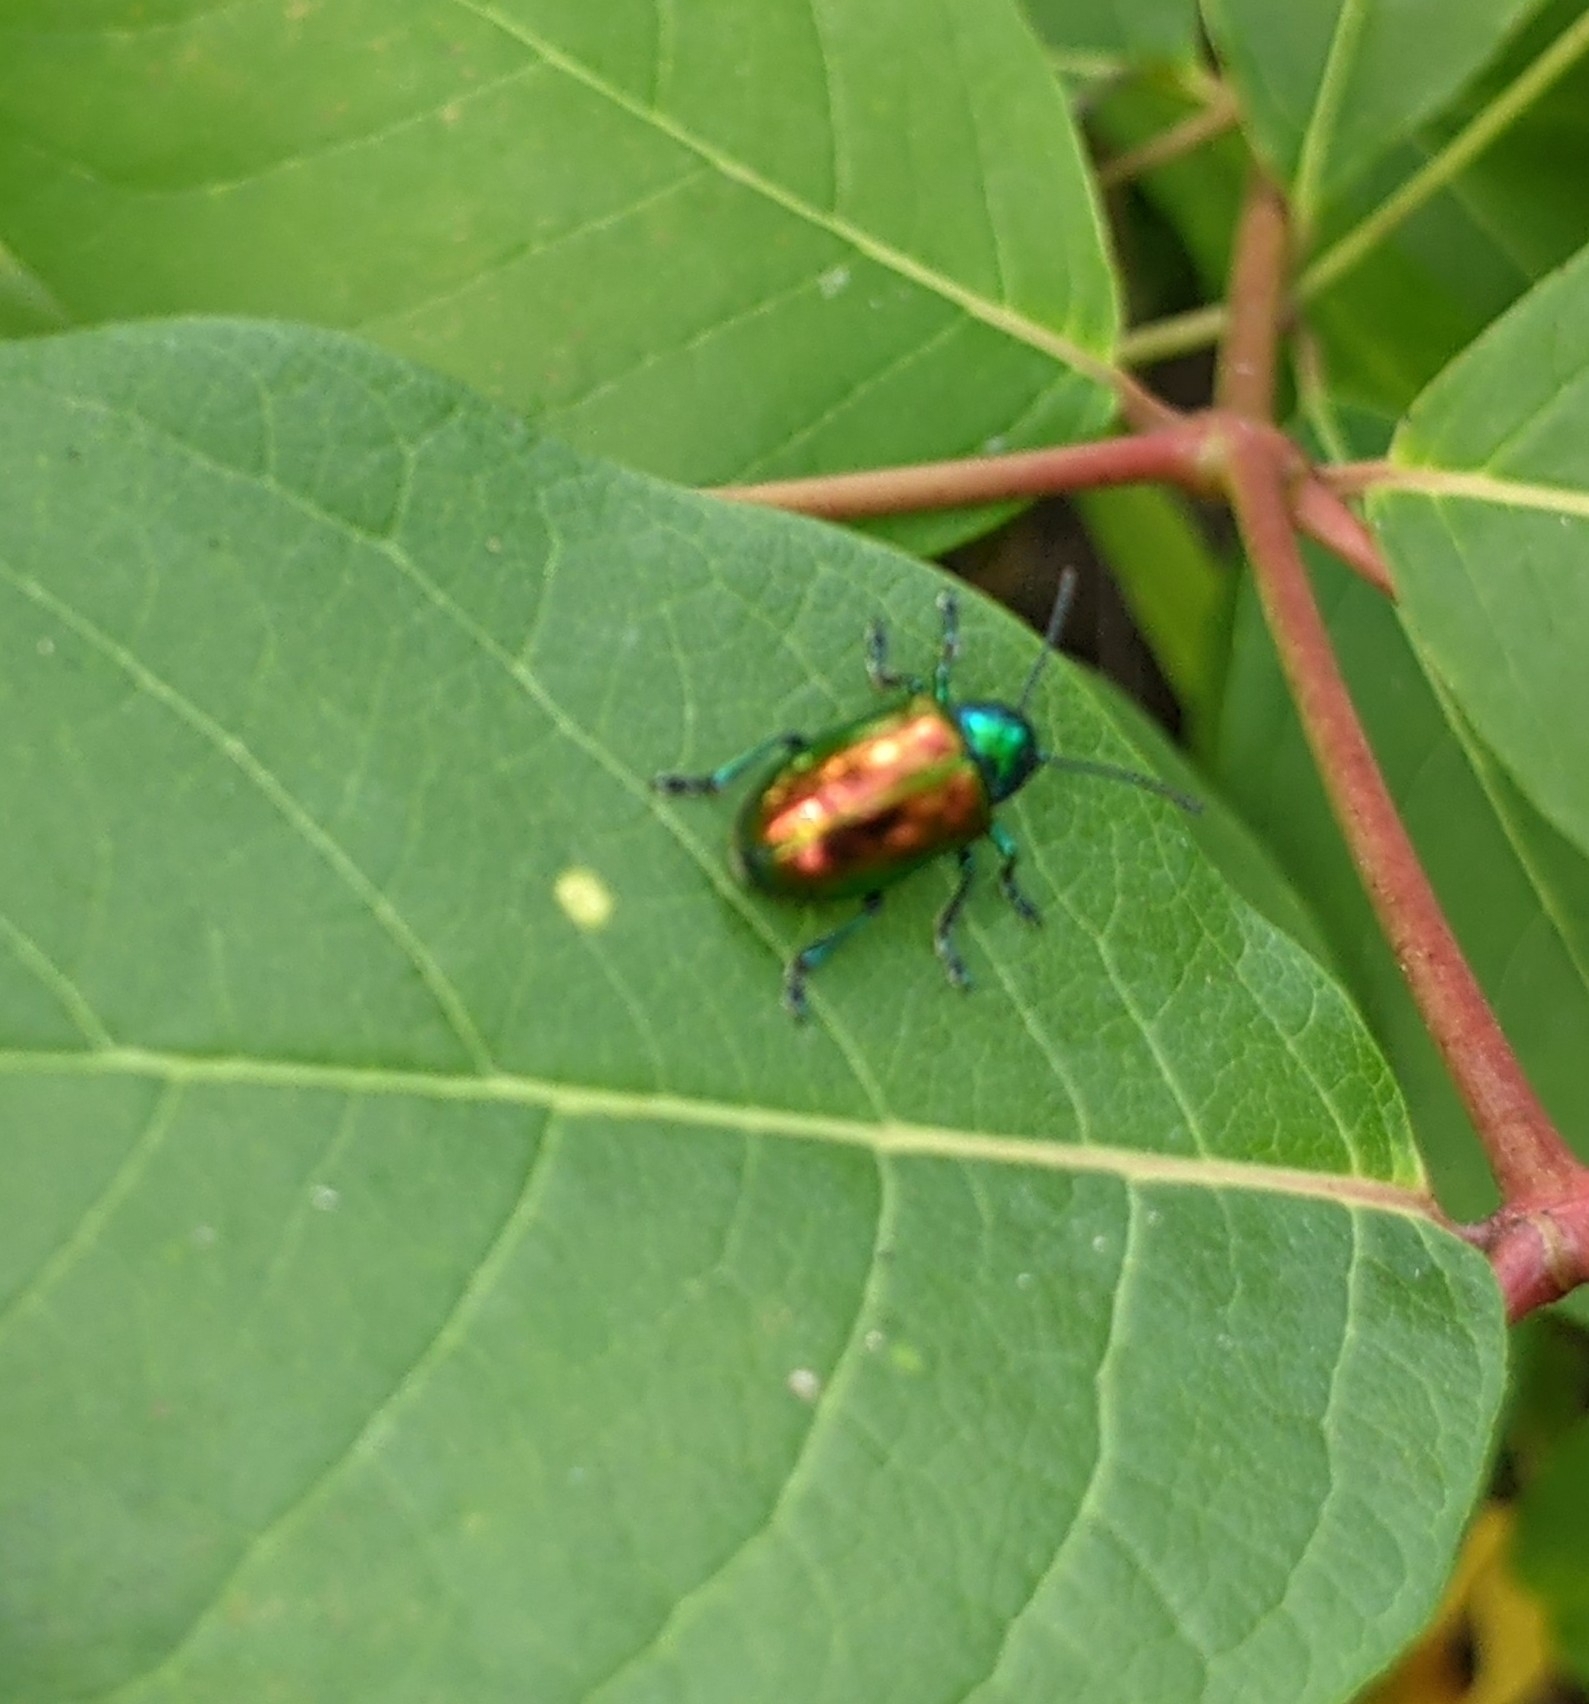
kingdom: Animalia
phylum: Arthropoda
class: Insecta
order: Coleoptera
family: Chrysomelidae
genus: Chrysochus
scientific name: Chrysochus auratus
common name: Dogbane leaf beetle
